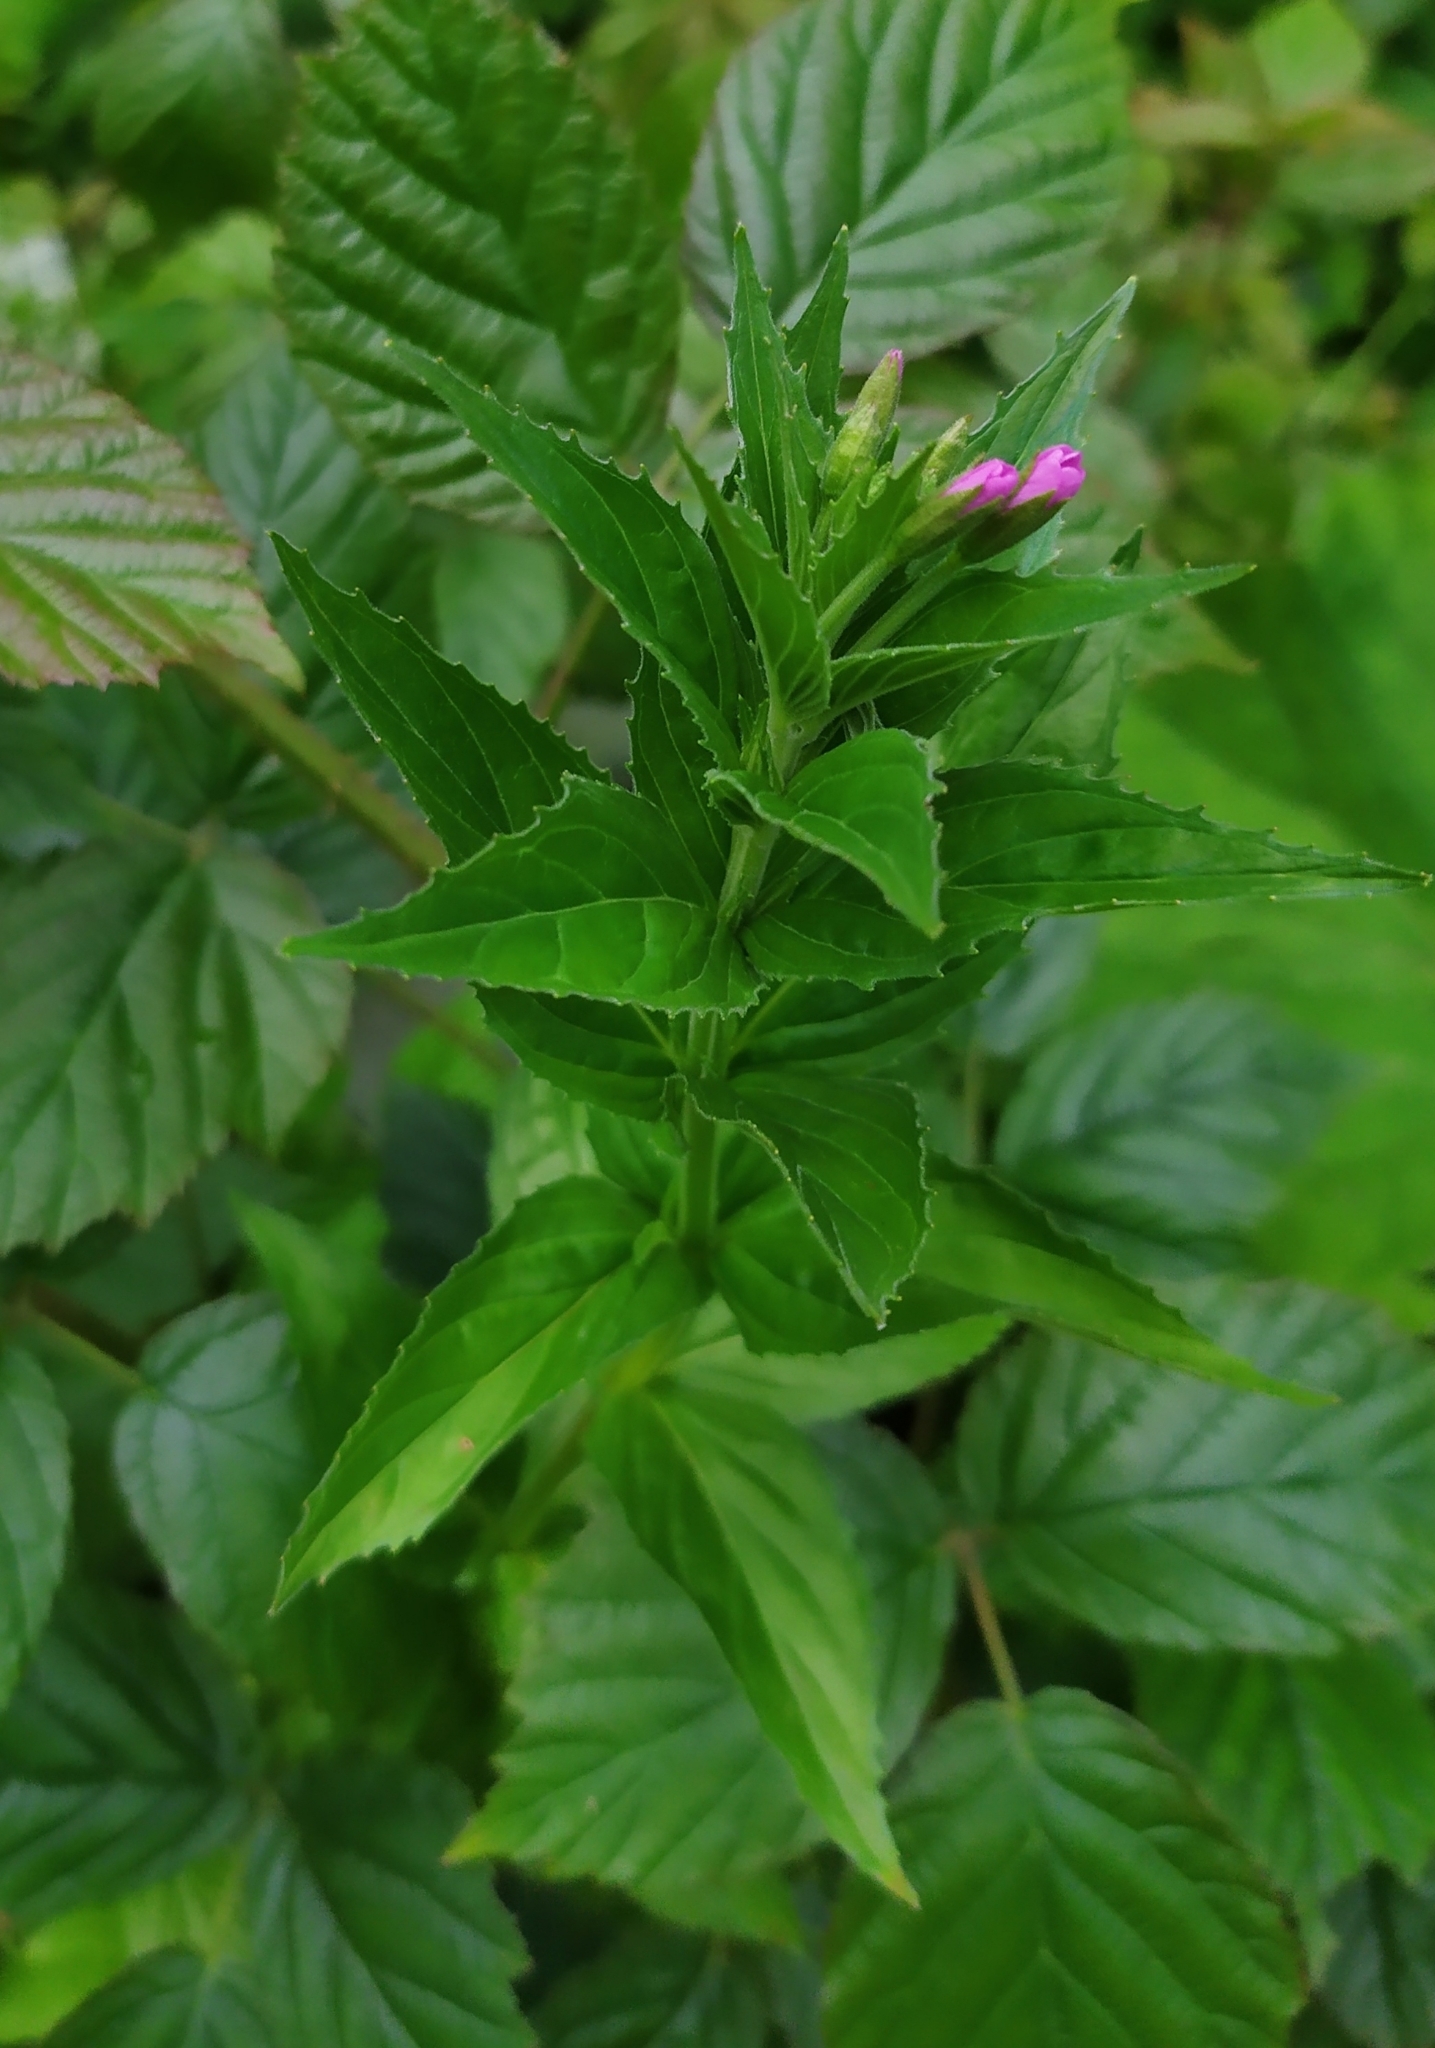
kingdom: Plantae
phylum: Tracheophyta
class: Magnoliopsida
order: Myrtales
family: Onagraceae
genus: Epilobium
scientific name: Epilobium alpestre
